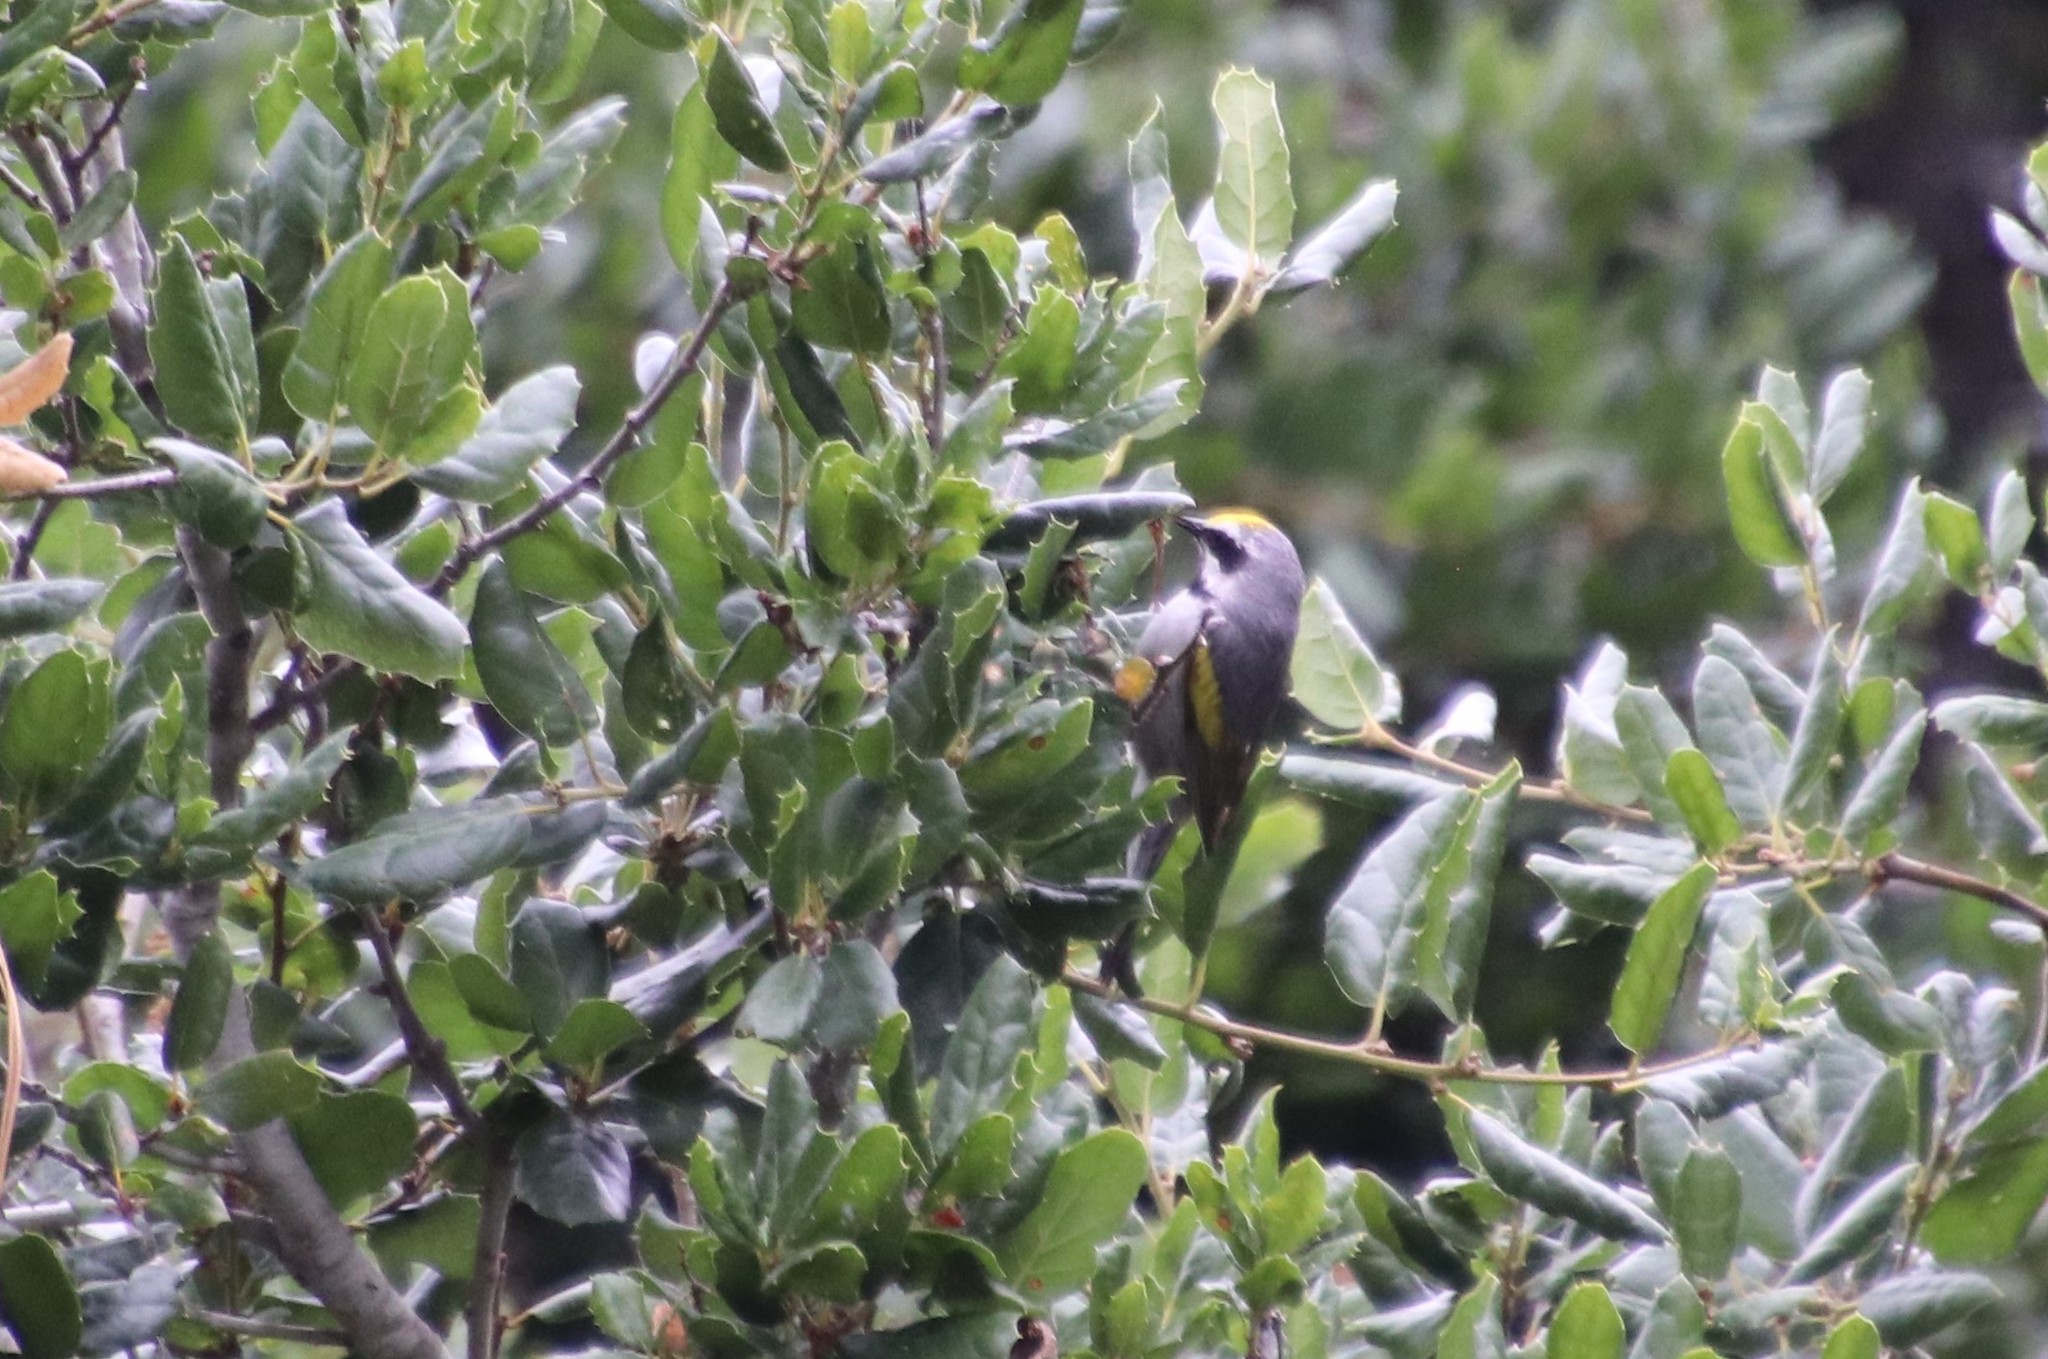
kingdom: Animalia
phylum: Chordata
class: Aves
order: Passeriformes
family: Parulidae
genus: Vermivora
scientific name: Vermivora chrysoptera
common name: Golden-winged warbler
